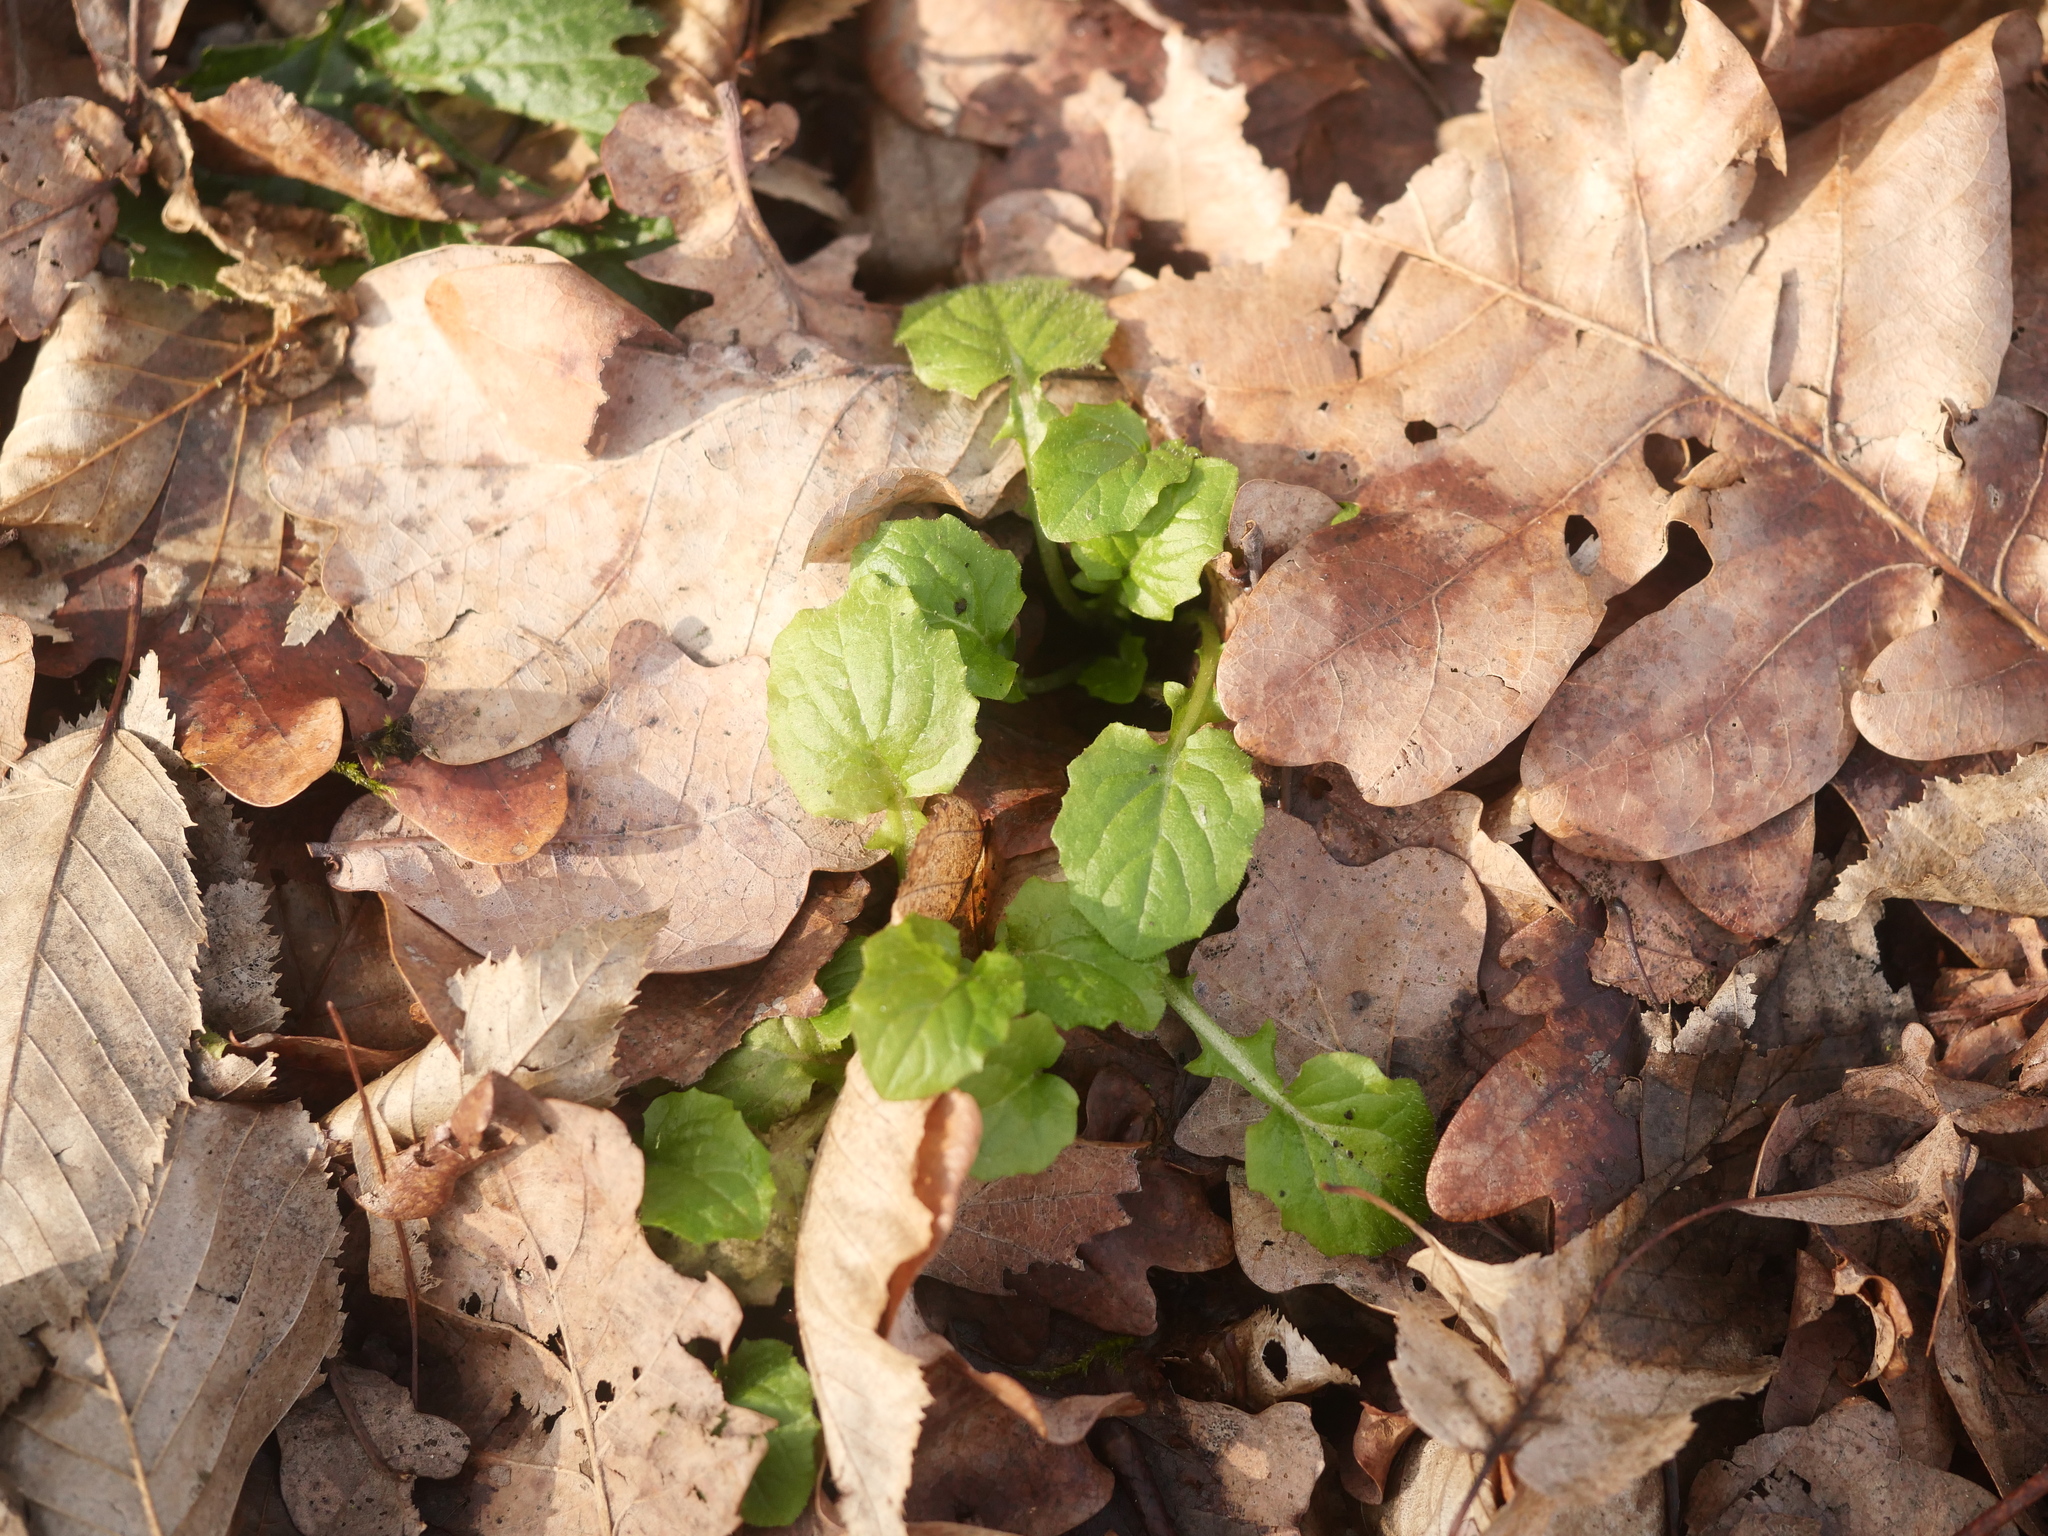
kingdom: Plantae
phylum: Tracheophyta
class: Magnoliopsida
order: Asterales
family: Asteraceae
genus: Lapsana
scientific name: Lapsana communis
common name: Nipplewort
